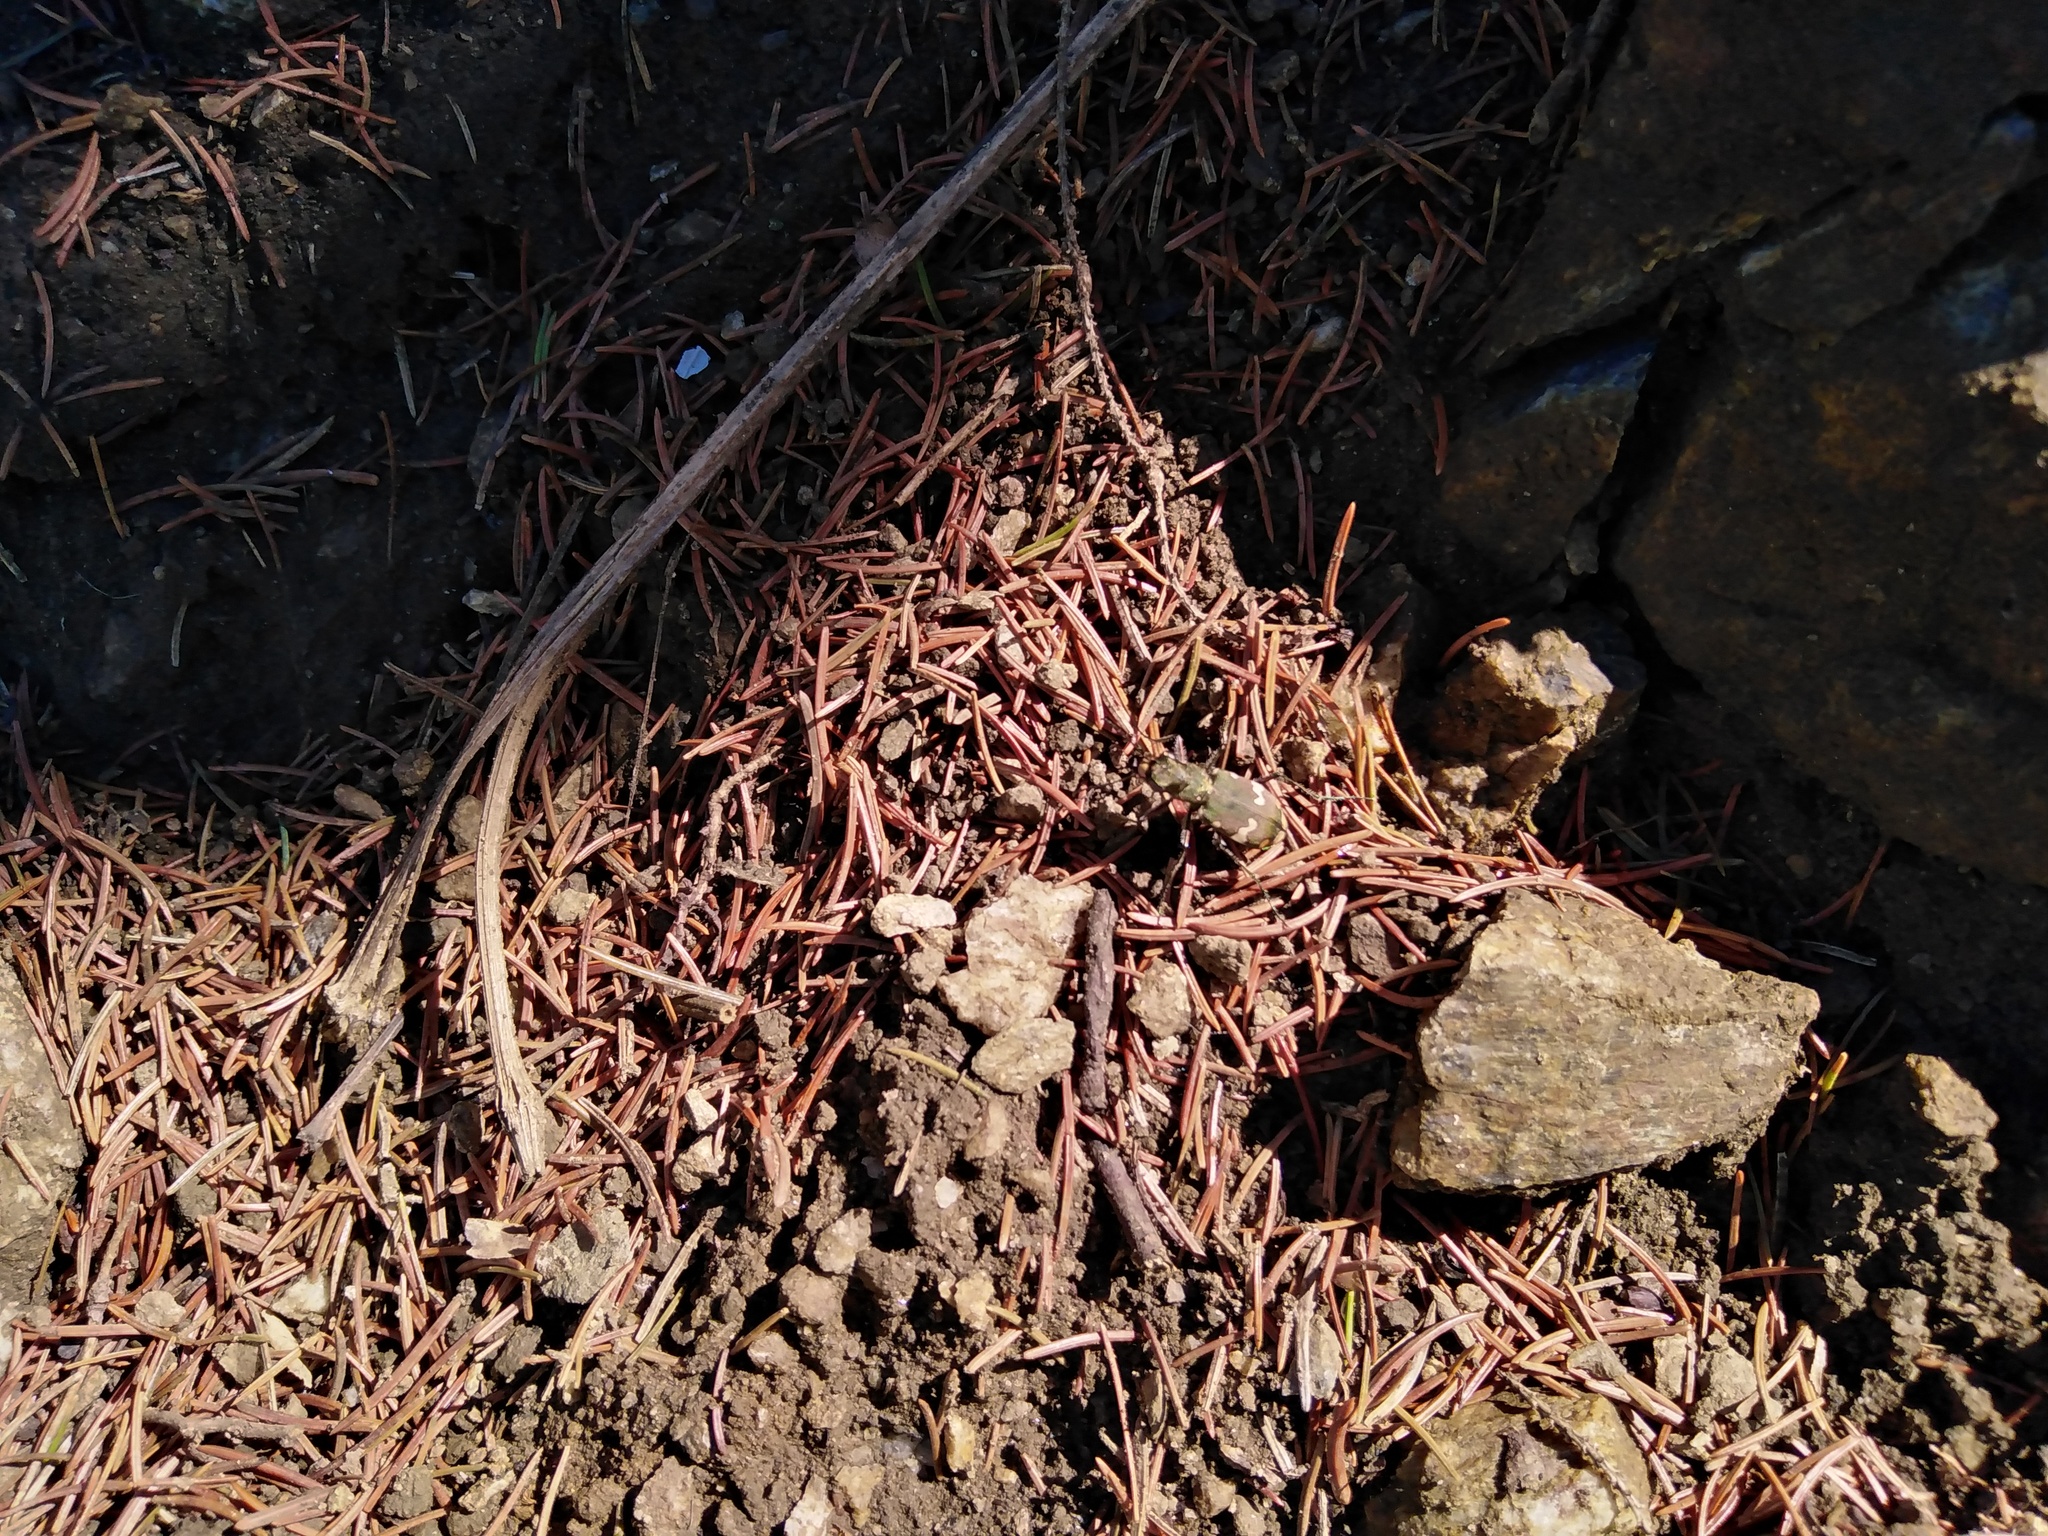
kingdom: Animalia
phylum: Arthropoda
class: Insecta
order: Coleoptera
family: Carabidae
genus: Cicindela
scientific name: Cicindela sylvicola
